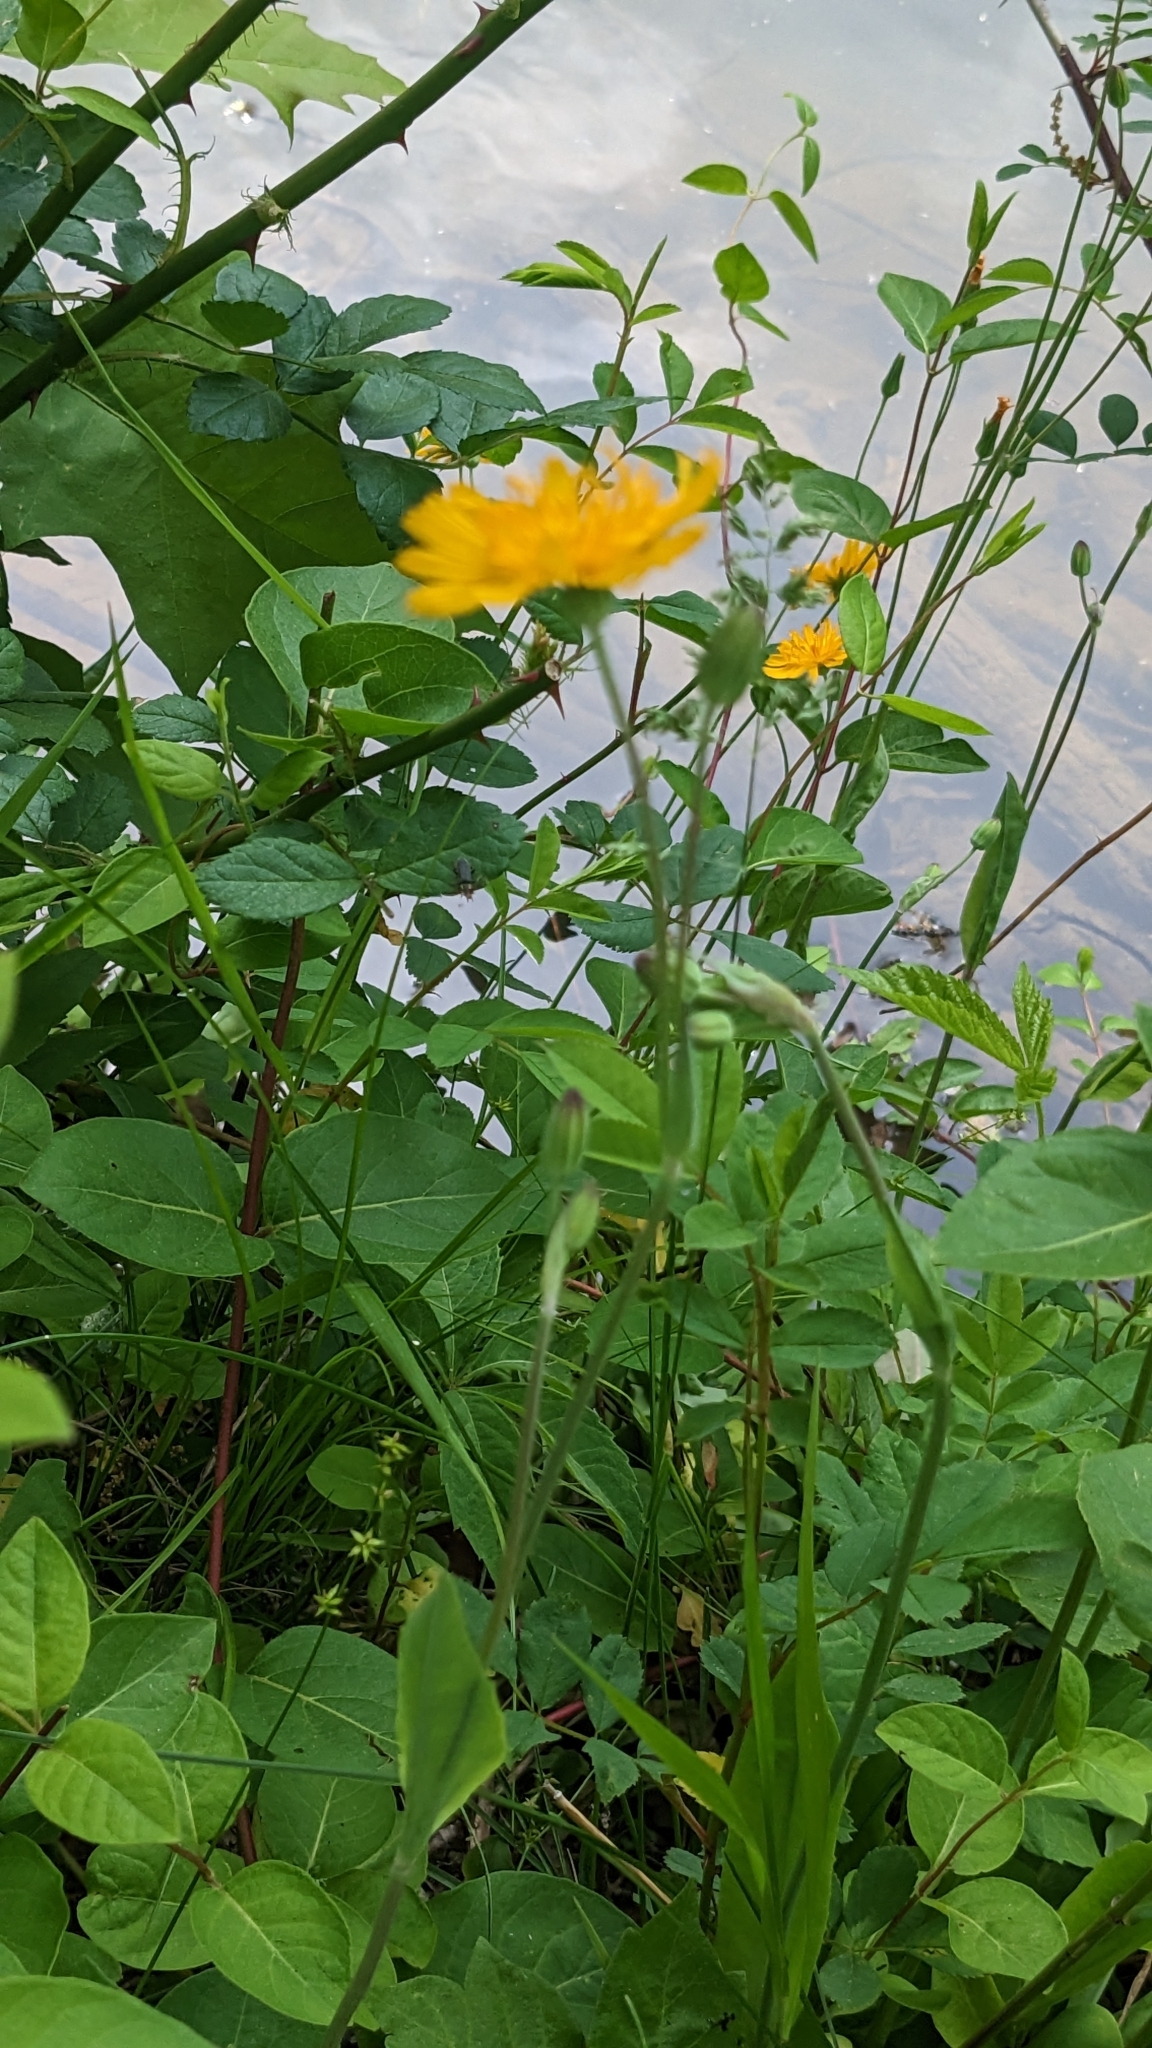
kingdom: Plantae
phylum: Tracheophyta
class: Magnoliopsida
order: Asterales
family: Asteraceae
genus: Krigia
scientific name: Krigia biflora
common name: Orange dwarf-dandelion
